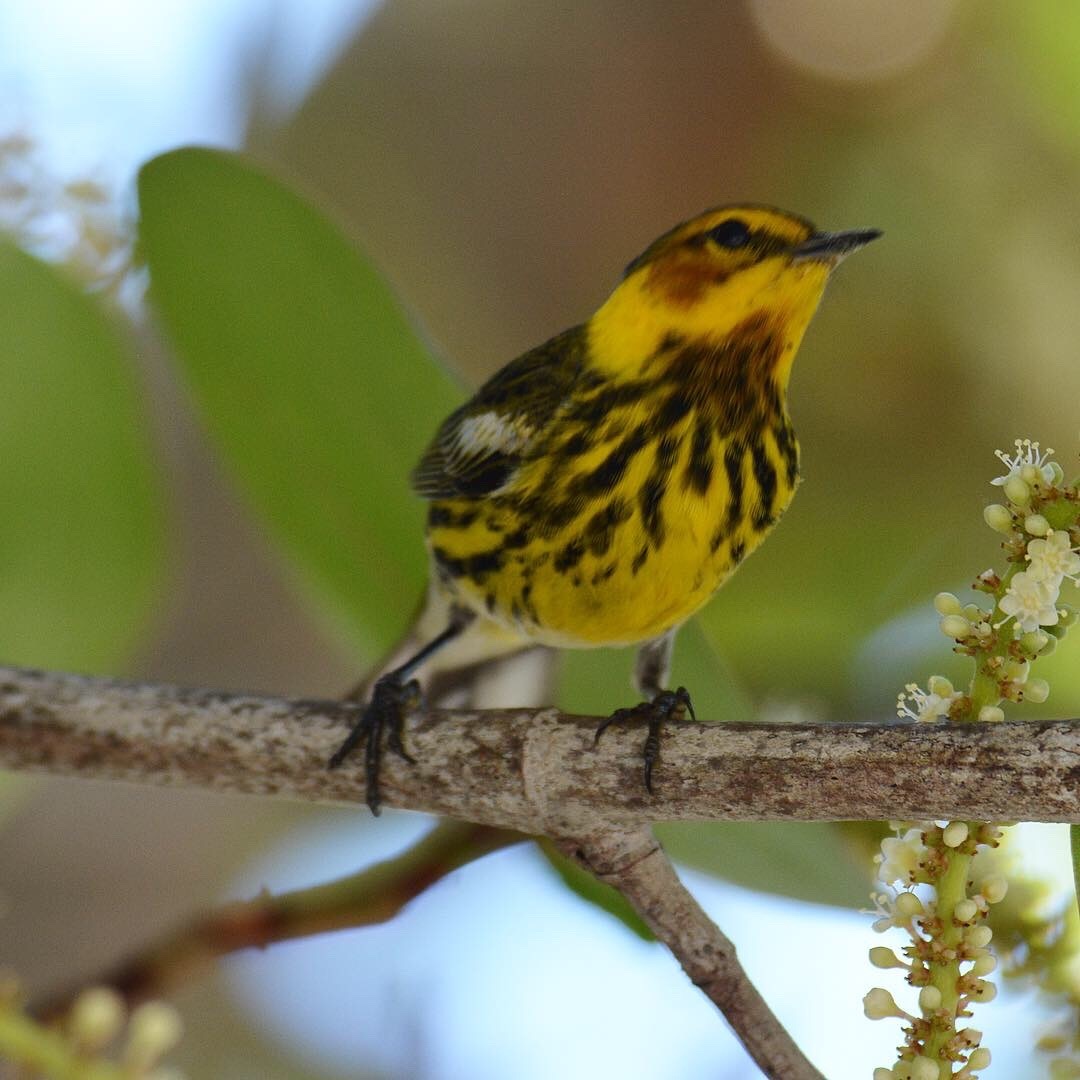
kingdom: Animalia
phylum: Chordata
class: Aves
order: Passeriformes
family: Parulidae
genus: Setophaga
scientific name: Setophaga tigrina
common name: Cape may warbler
